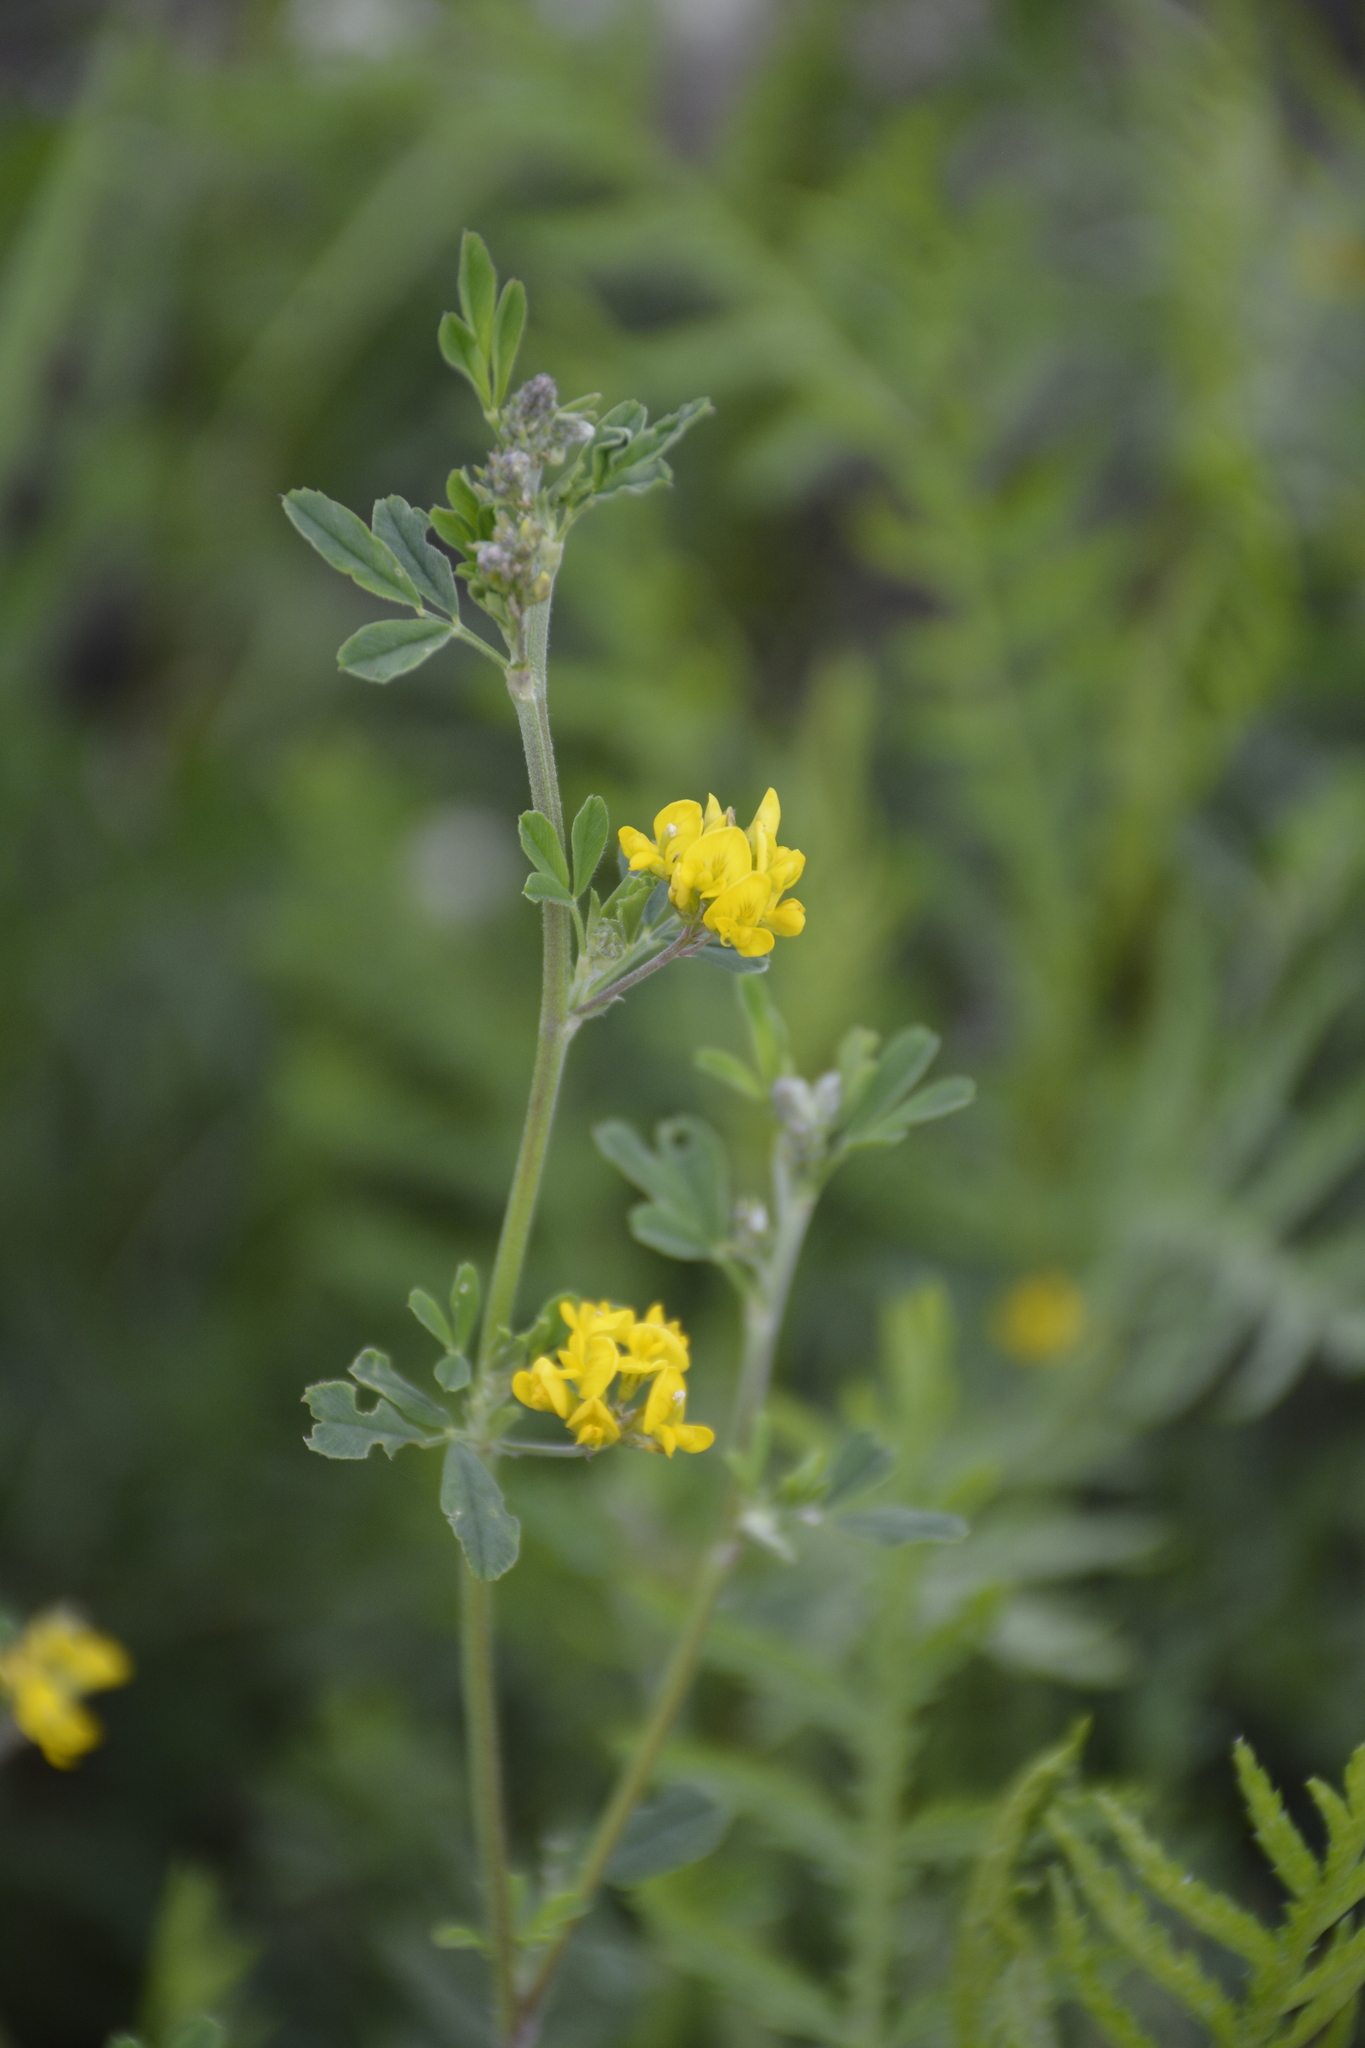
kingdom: Plantae
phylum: Tracheophyta
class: Magnoliopsida
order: Fabales
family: Fabaceae
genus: Medicago
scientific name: Medicago falcata
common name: Sickle medick
